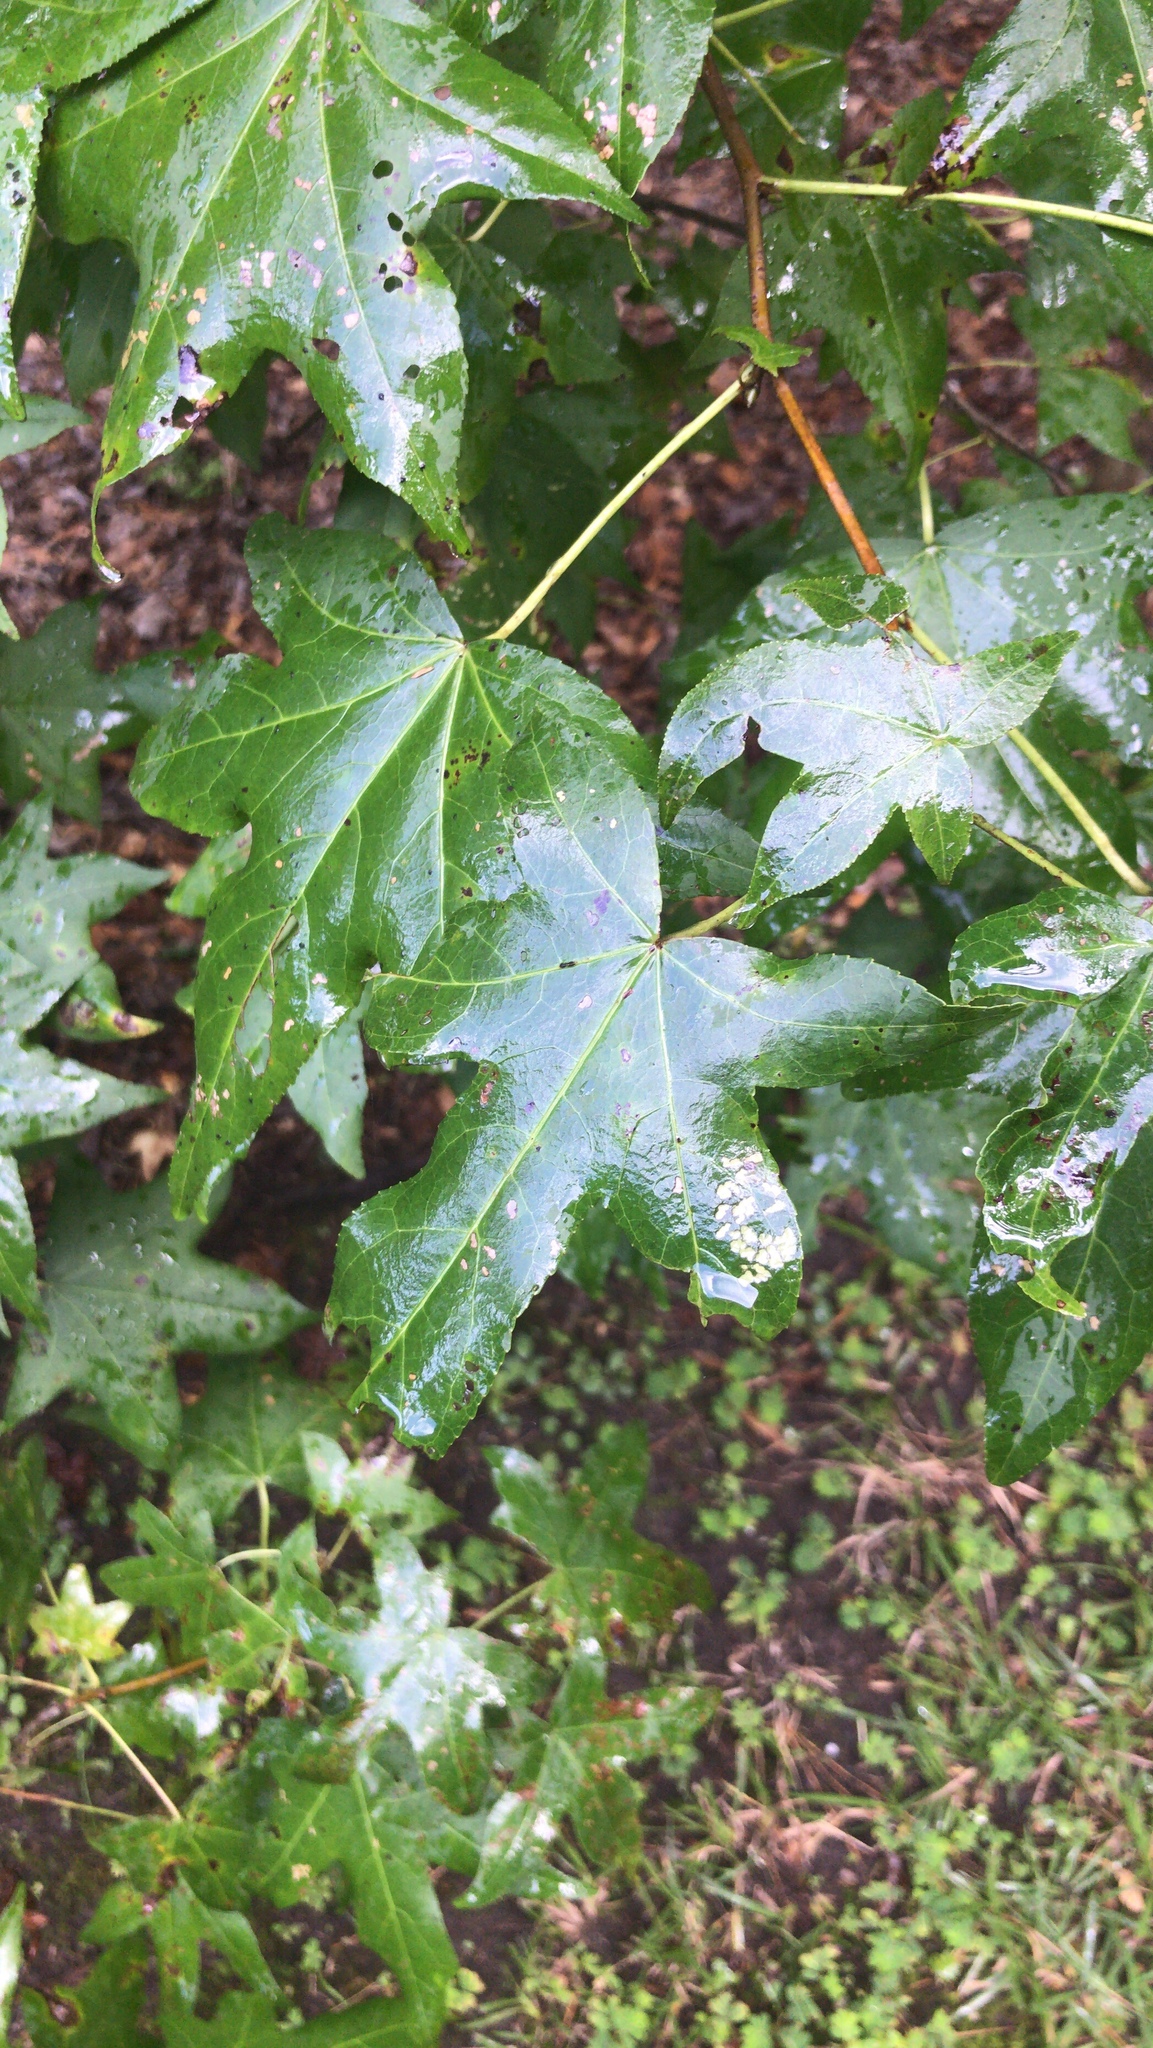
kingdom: Plantae
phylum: Tracheophyta
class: Magnoliopsida
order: Saxifragales
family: Altingiaceae
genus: Liquidambar
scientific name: Liquidambar styraciflua
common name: Sweet gum
